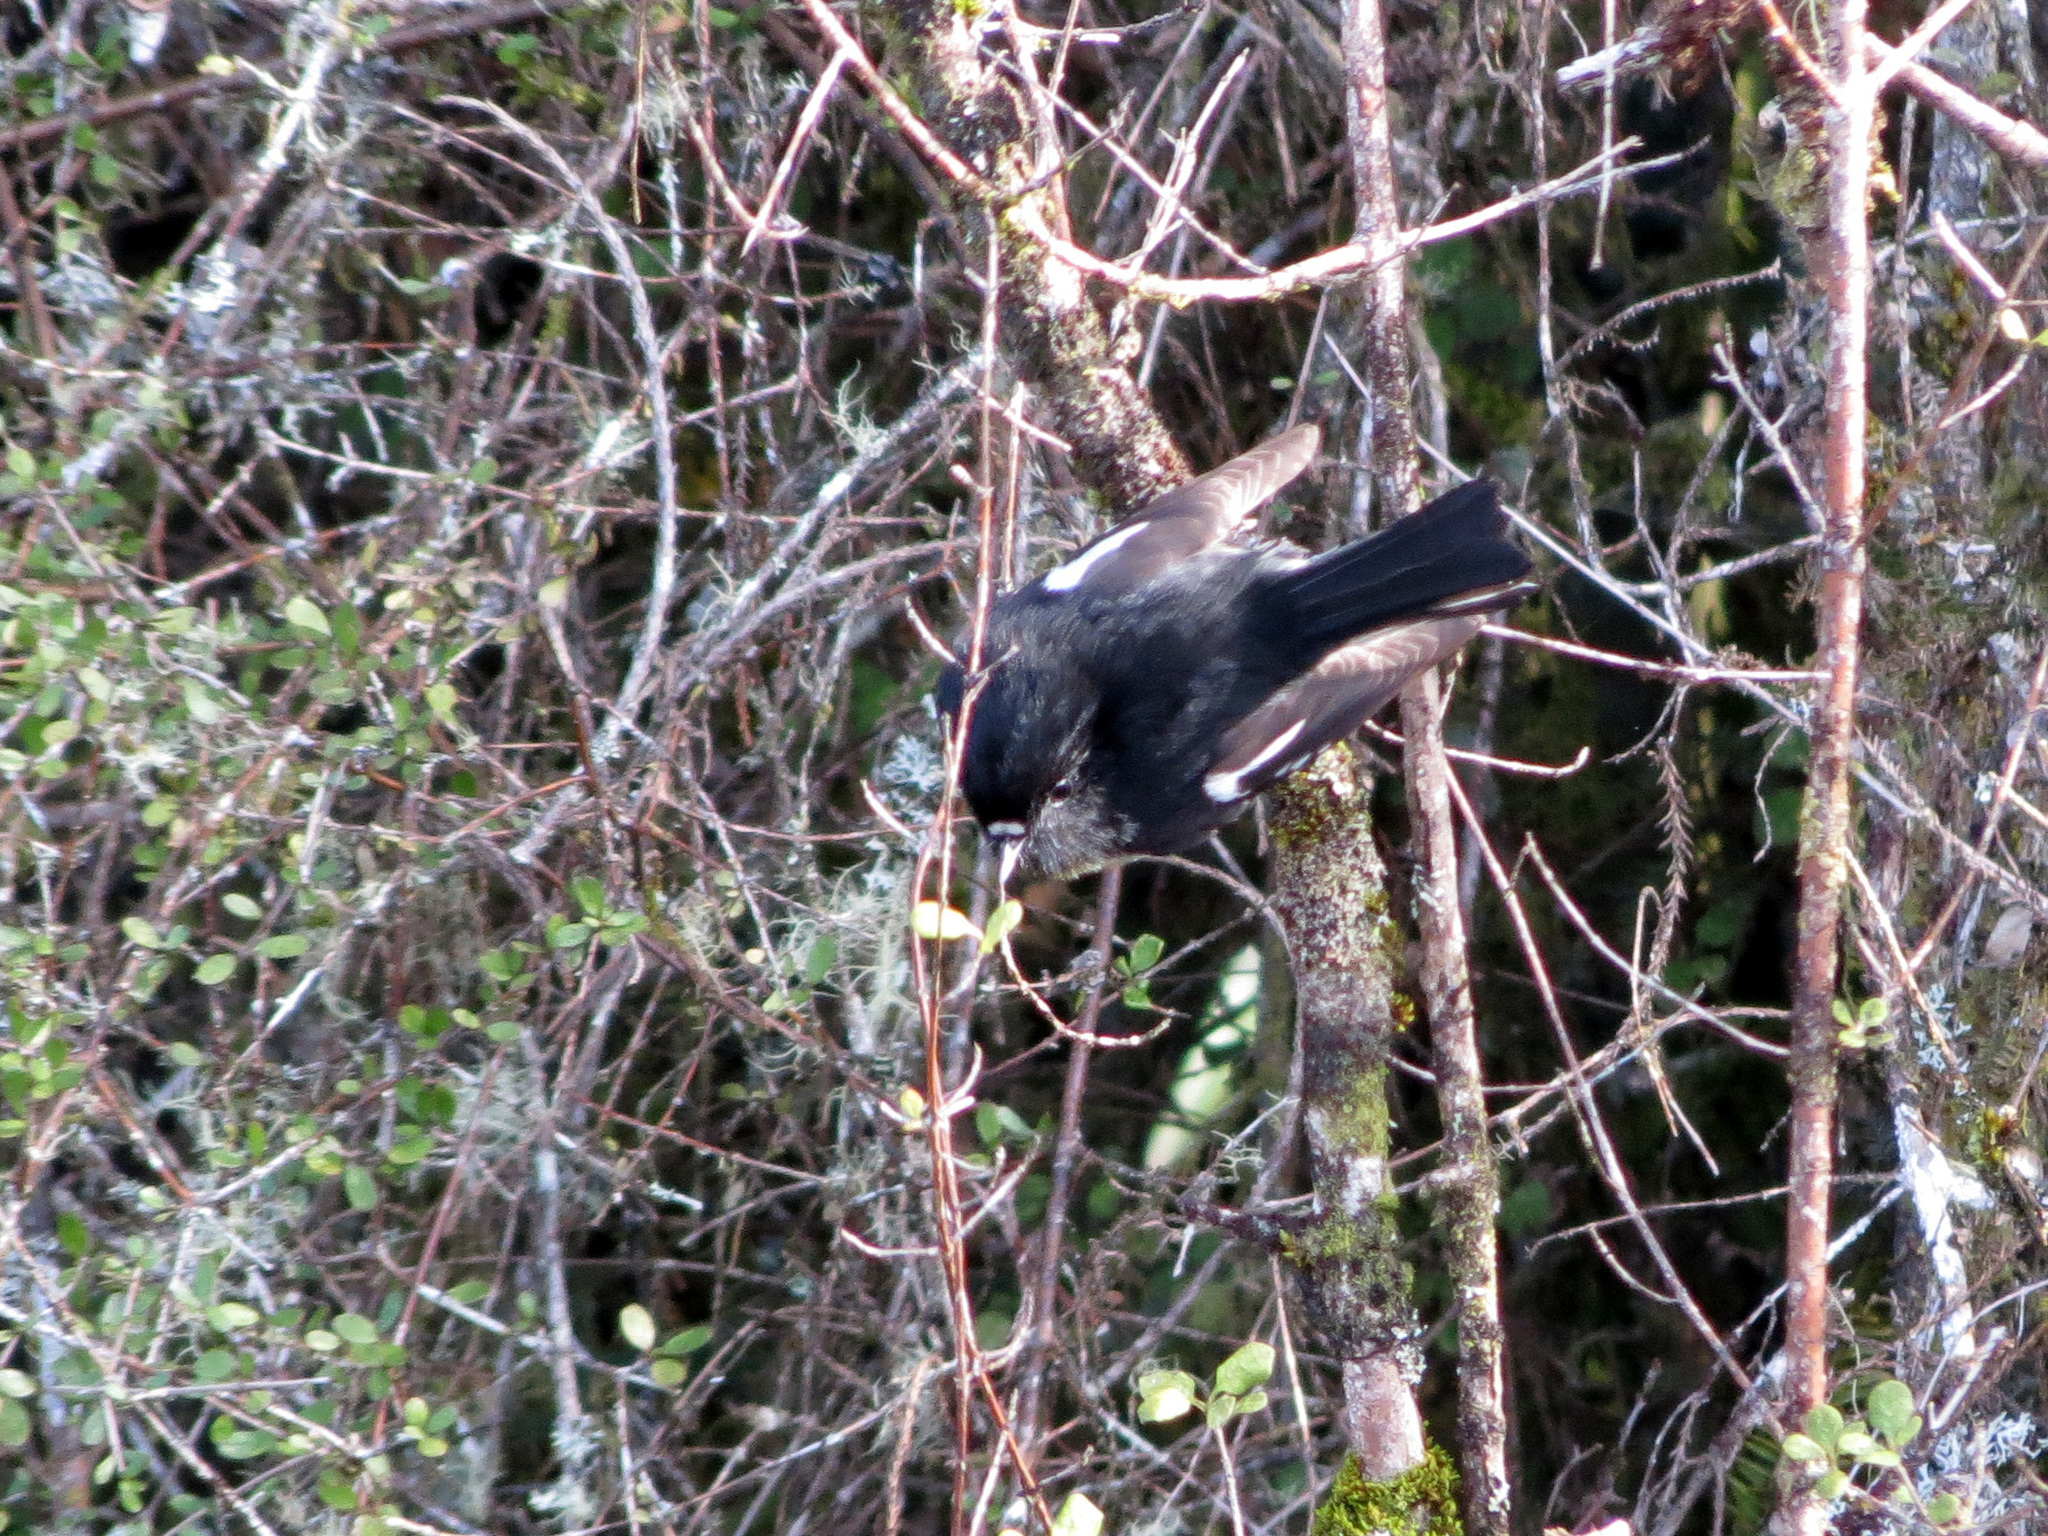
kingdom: Animalia
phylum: Chordata
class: Aves
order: Passeriformes
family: Petroicidae
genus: Petroica
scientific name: Petroica macrocephala
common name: Tomtit
